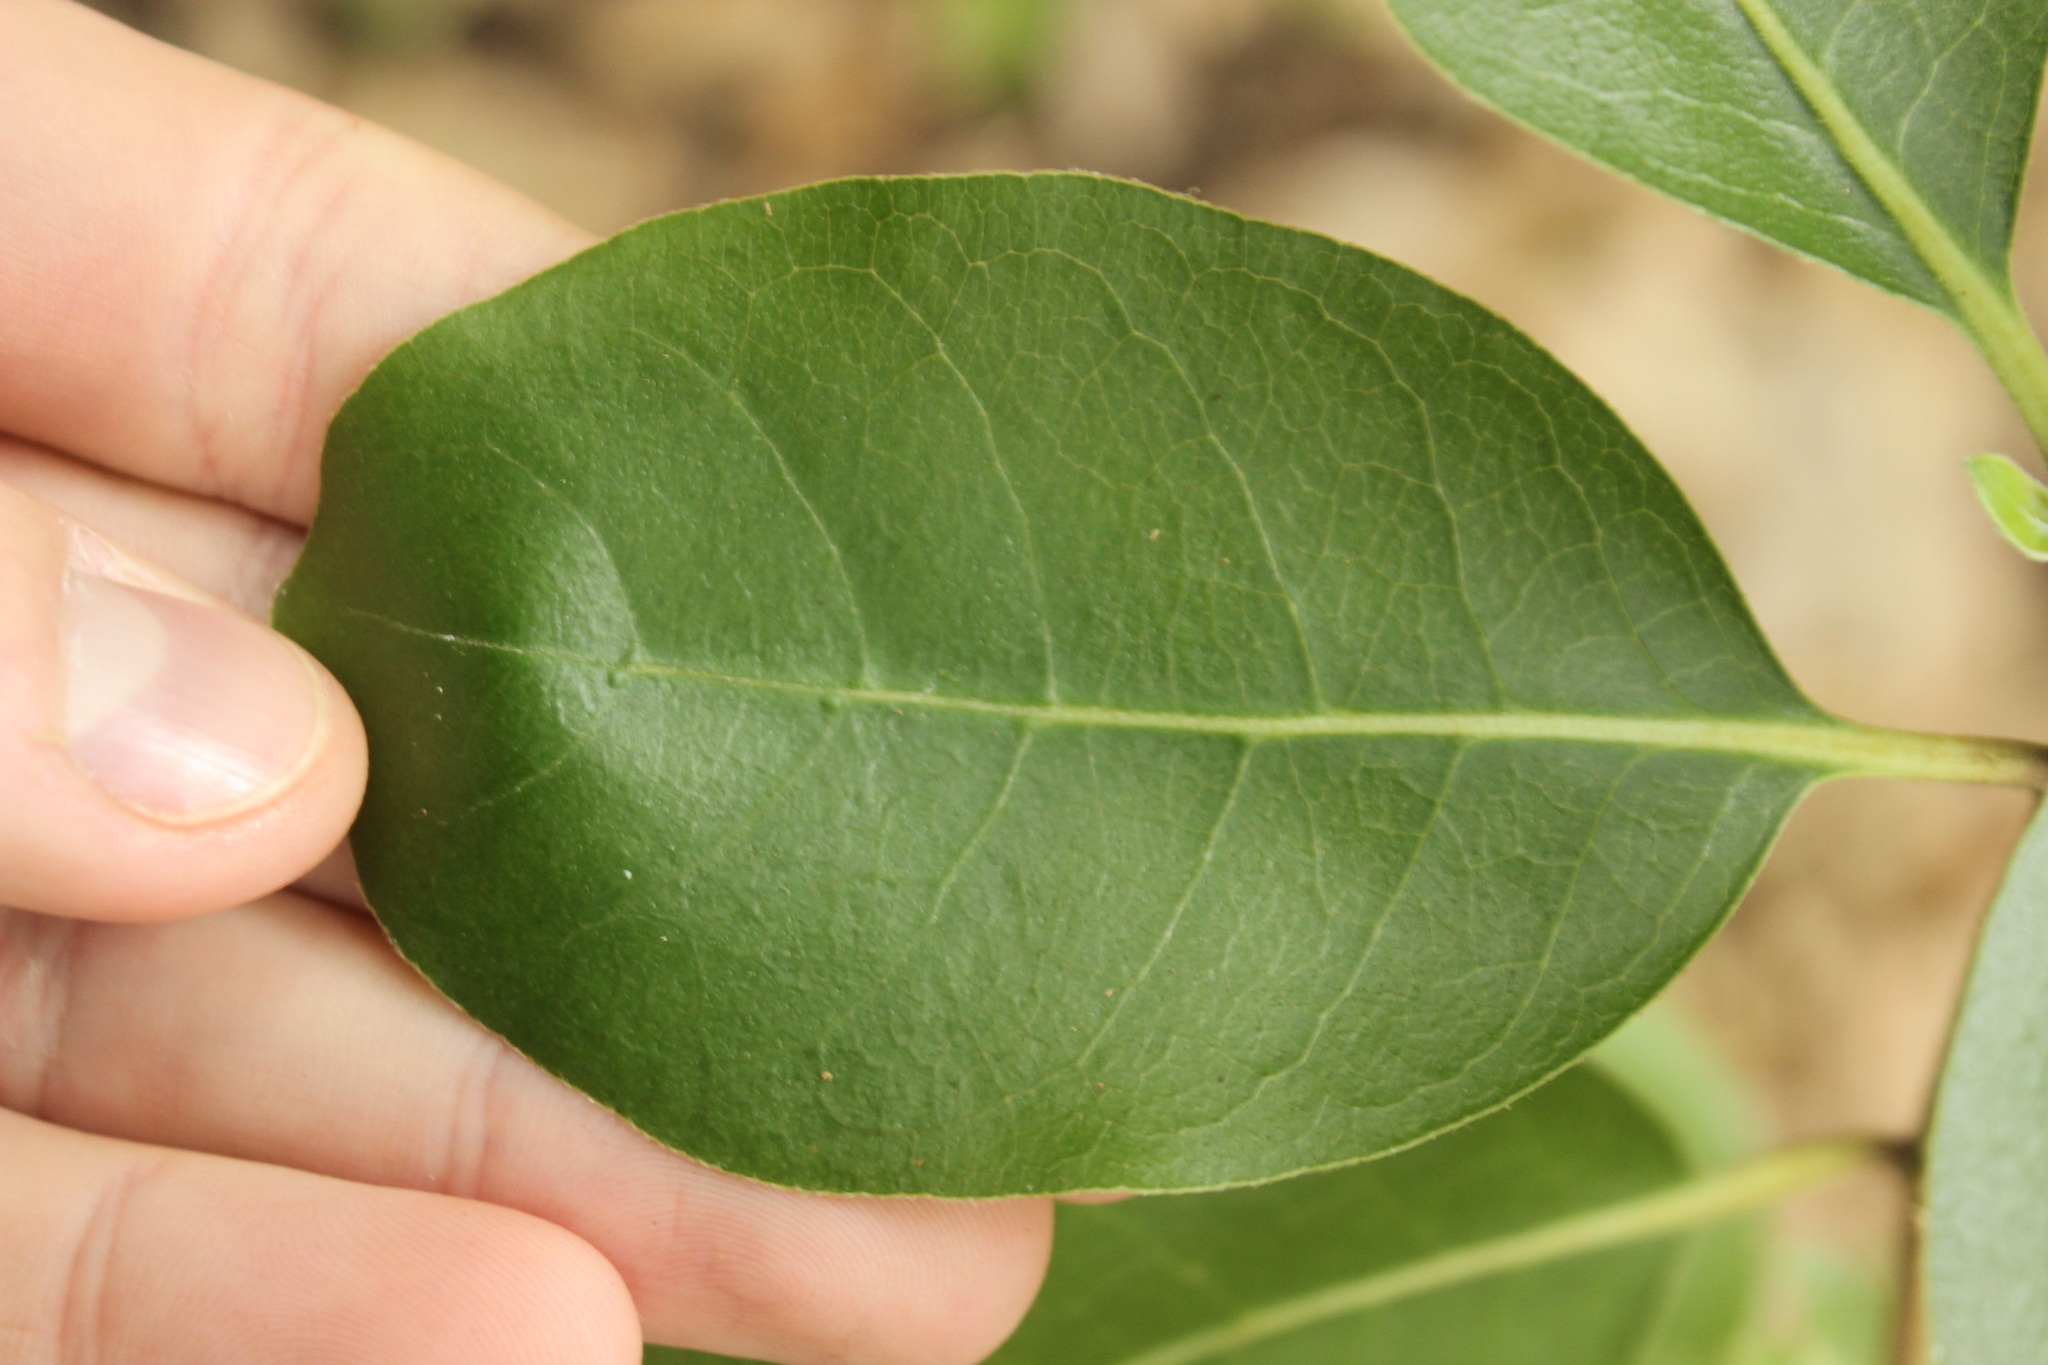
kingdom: Plantae
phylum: Tracheophyta
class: Magnoliopsida
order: Gentianales
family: Rubiaceae
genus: Coprosma
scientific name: Coprosma chathamica
